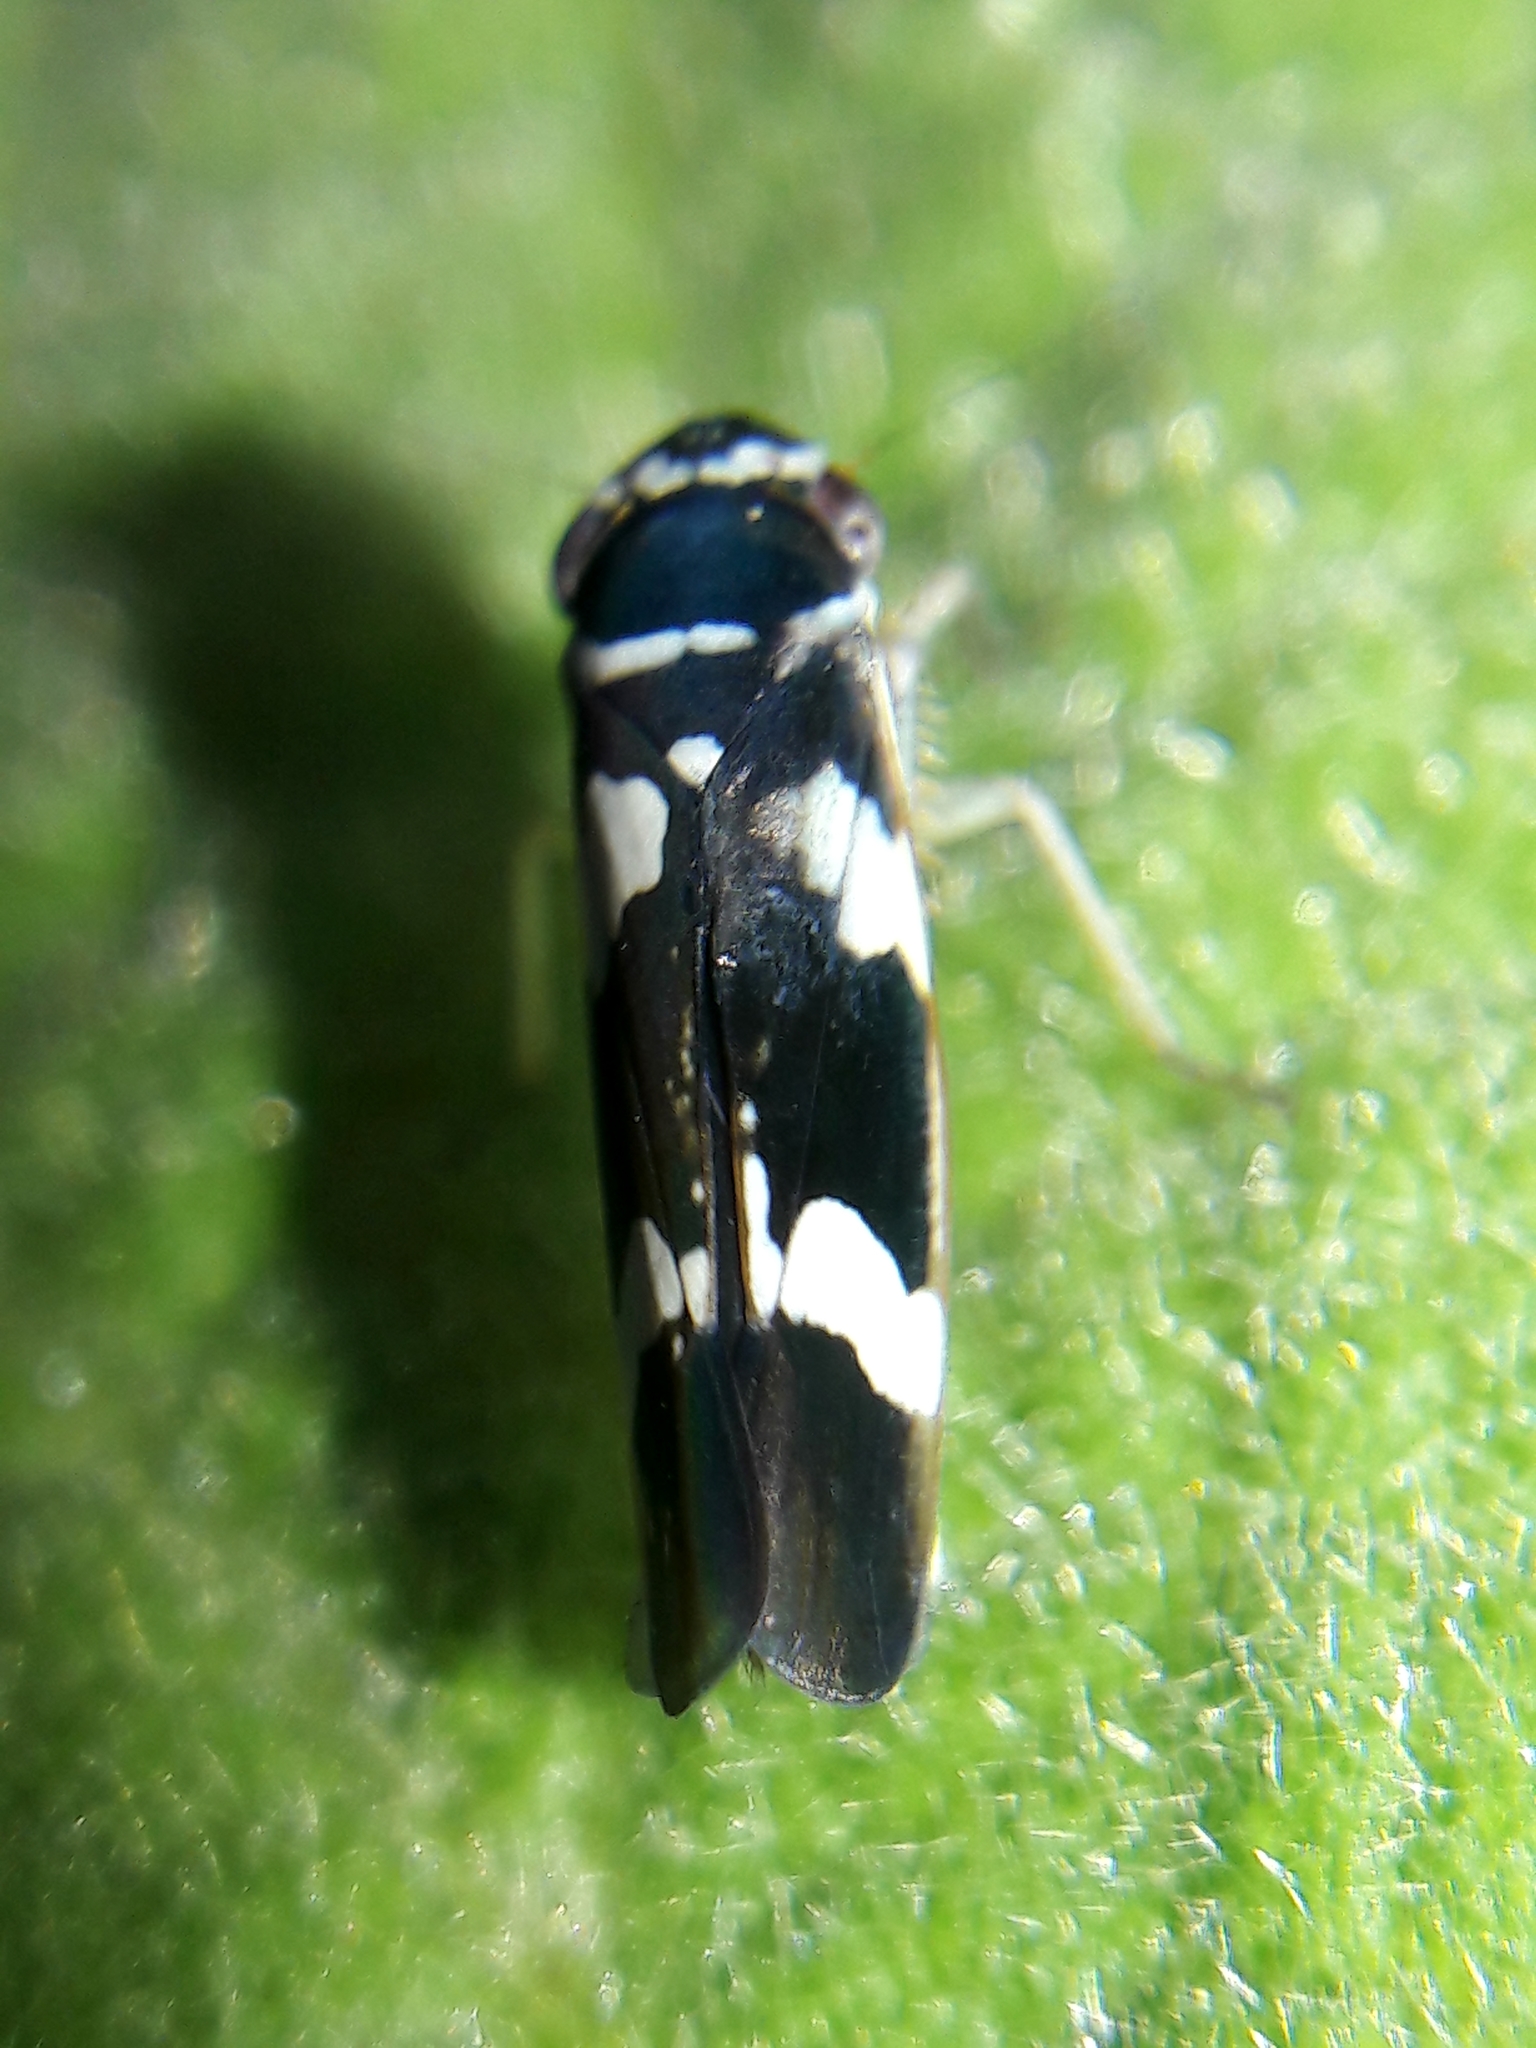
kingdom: Animalia
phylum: Arthropoda
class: Insecta
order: Hemiptera
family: Cicadellidae
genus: Macugonalia
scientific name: Macugonalia leucomelas
